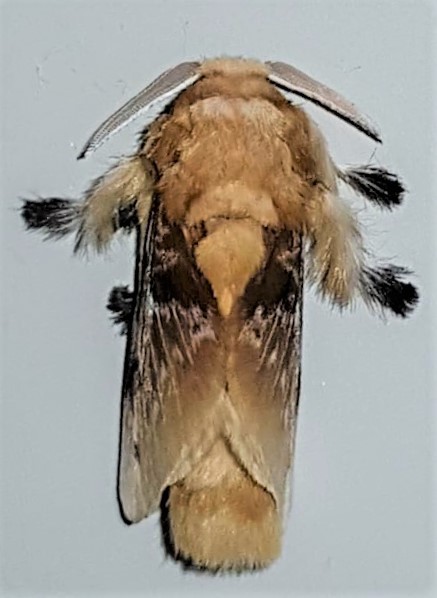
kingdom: Animalia
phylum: Arthropoda
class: Insecta
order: Lepidoptera
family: Megalopygidae
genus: Megalopyge
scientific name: Megalopyge megalopygae
